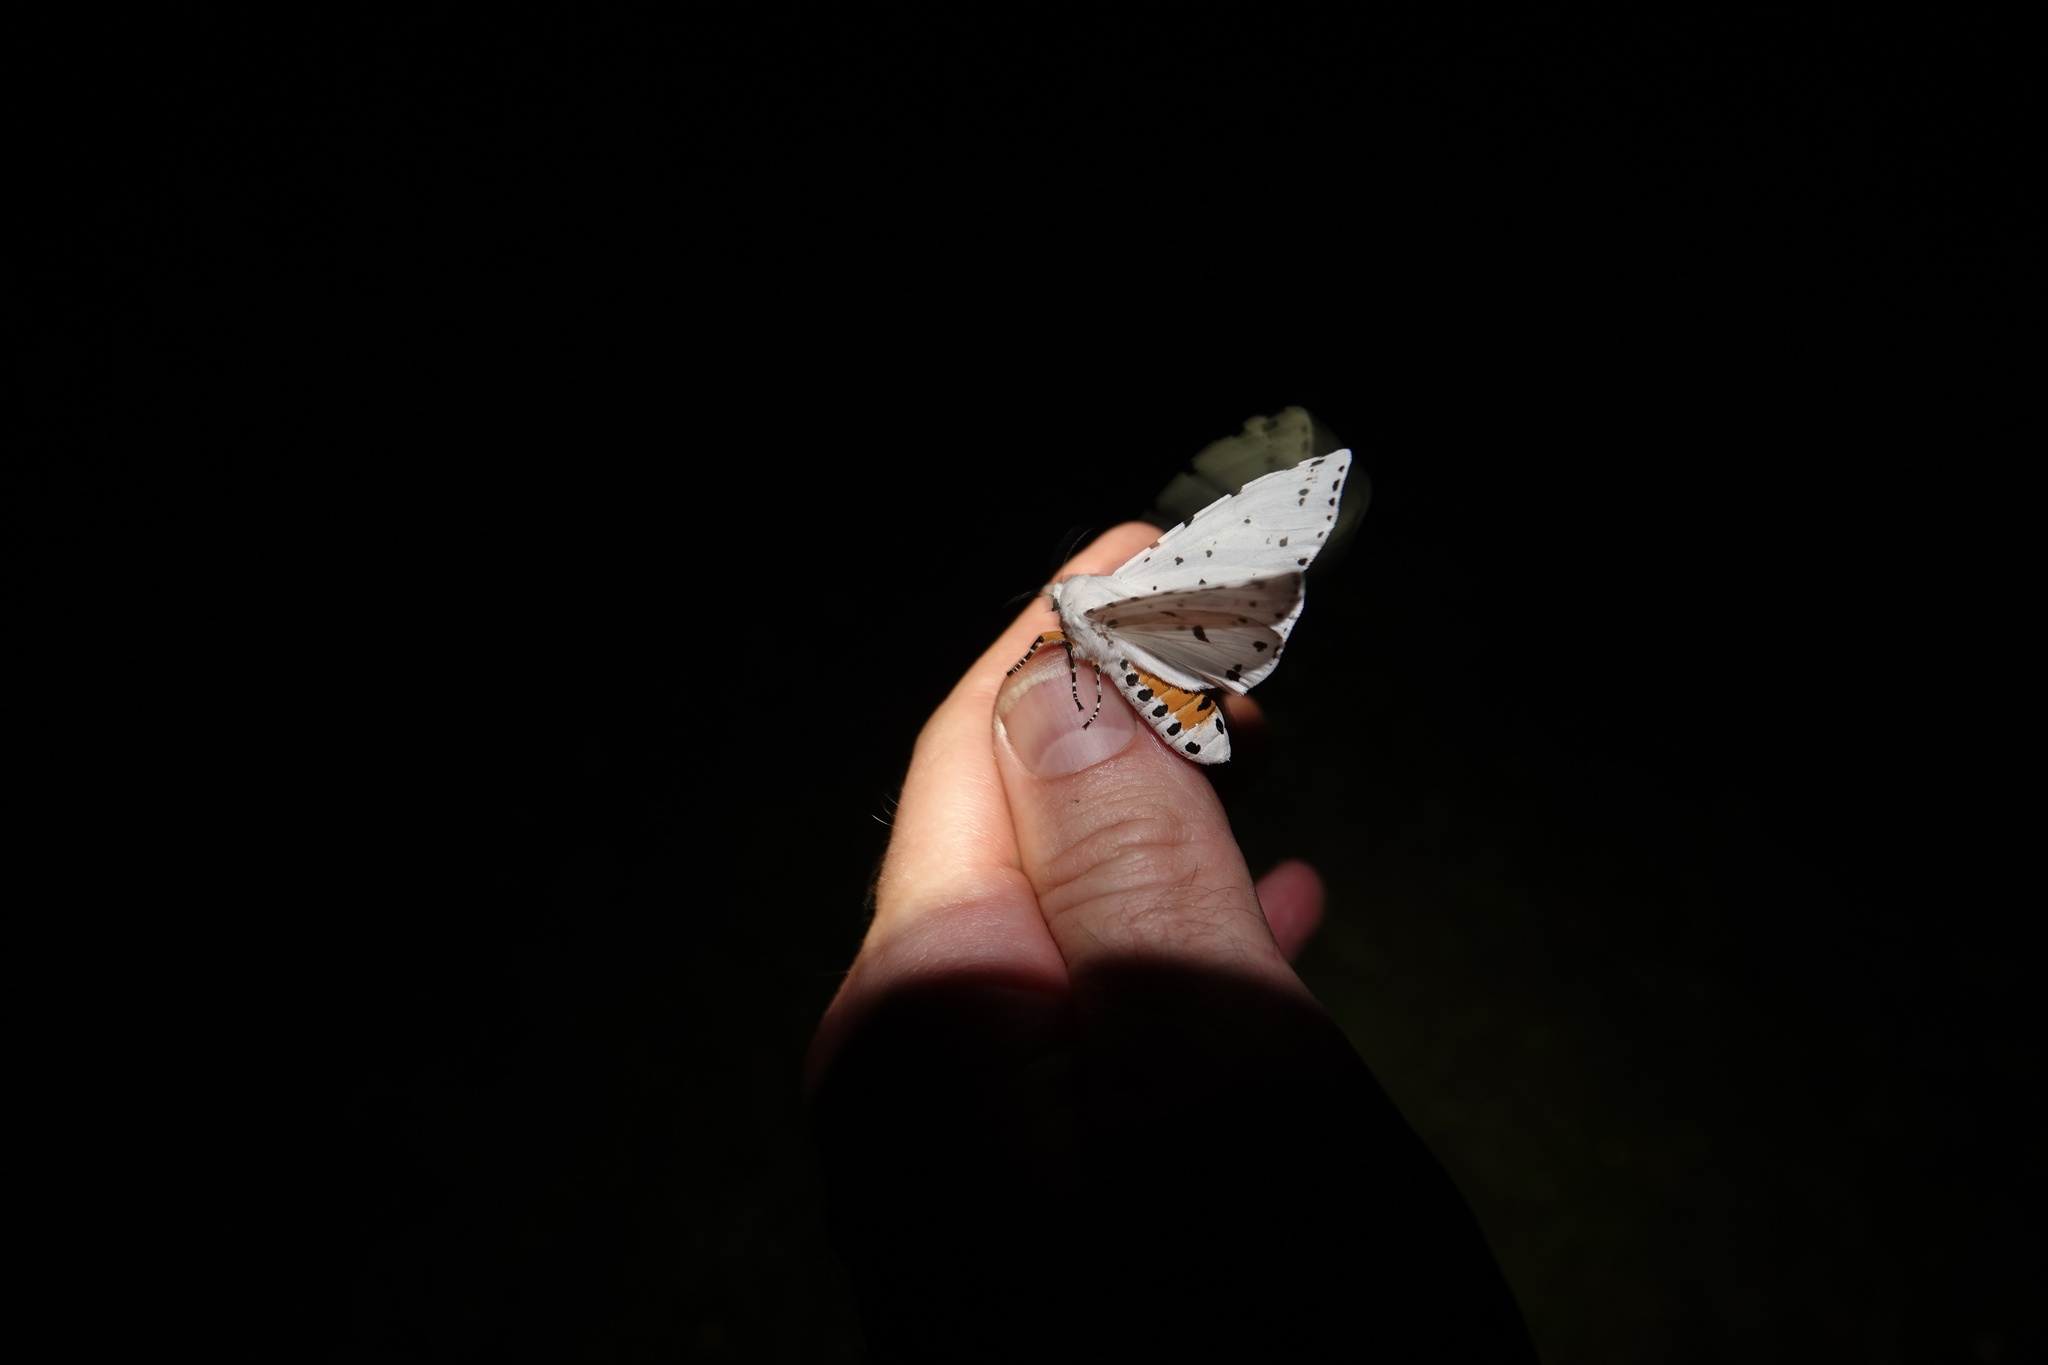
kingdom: Animalia
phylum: Arthropoda
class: Insecta
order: Lepidoptera
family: Erebidae
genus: Estigmene
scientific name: Estigmene acrea
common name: Salt marsh moth
